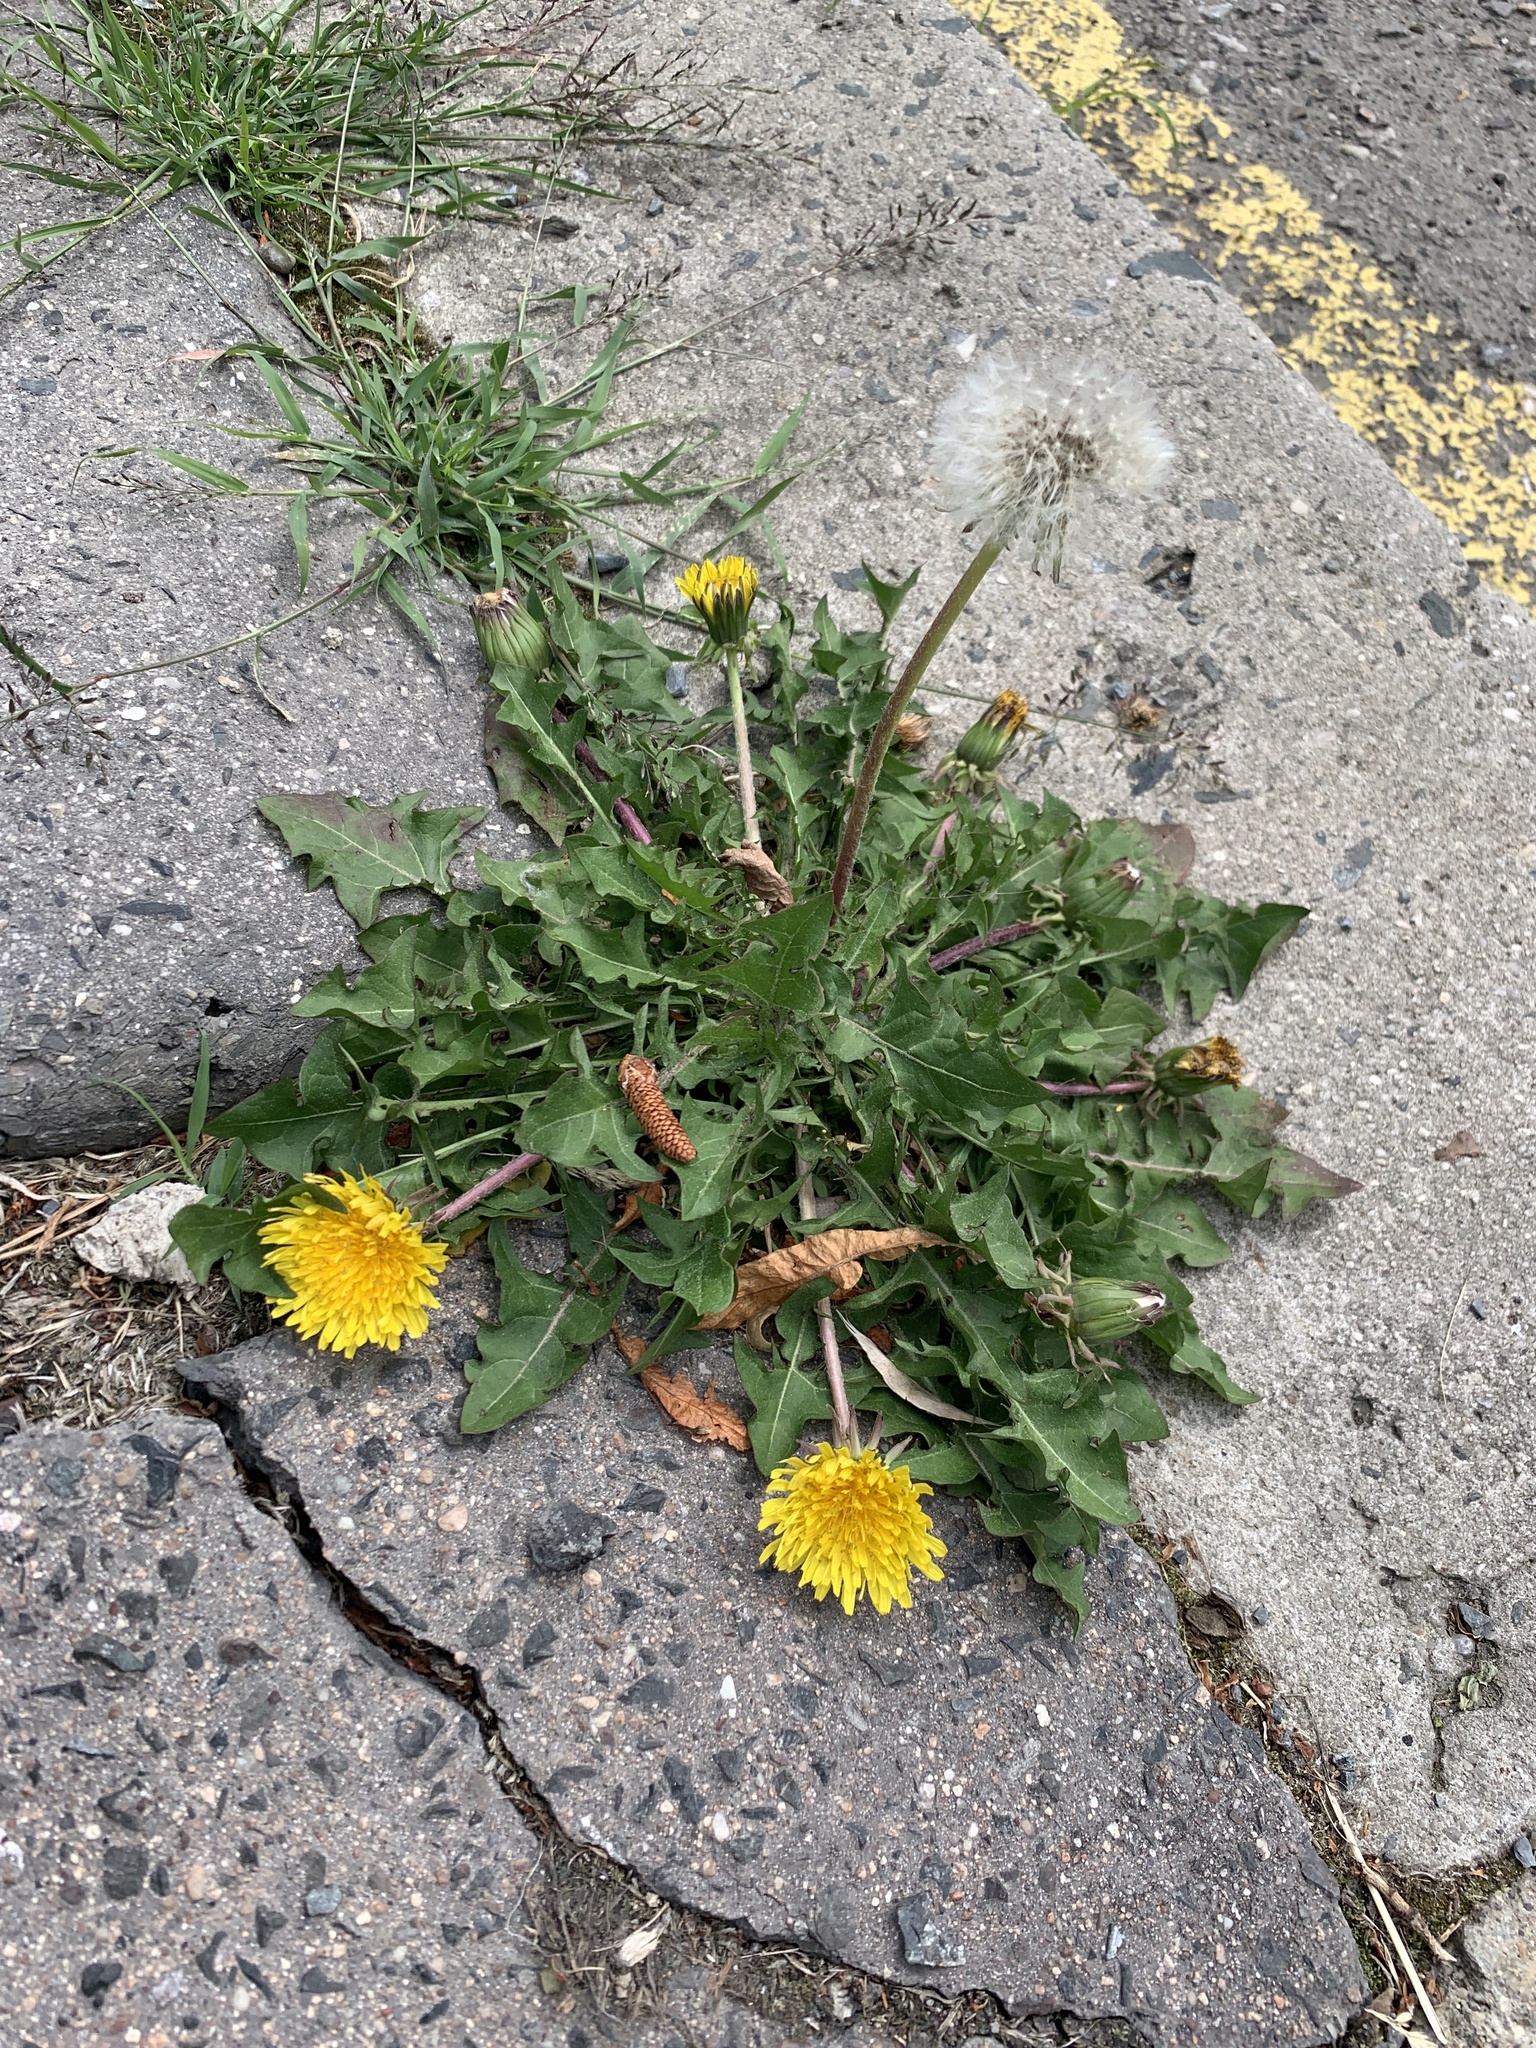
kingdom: Plantae
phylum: Tracheophyta
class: Magnoliopsida
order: Asterales
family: Asteraceae
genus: Taraxacum
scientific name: Taraxacum officinale
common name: Common dandelion
